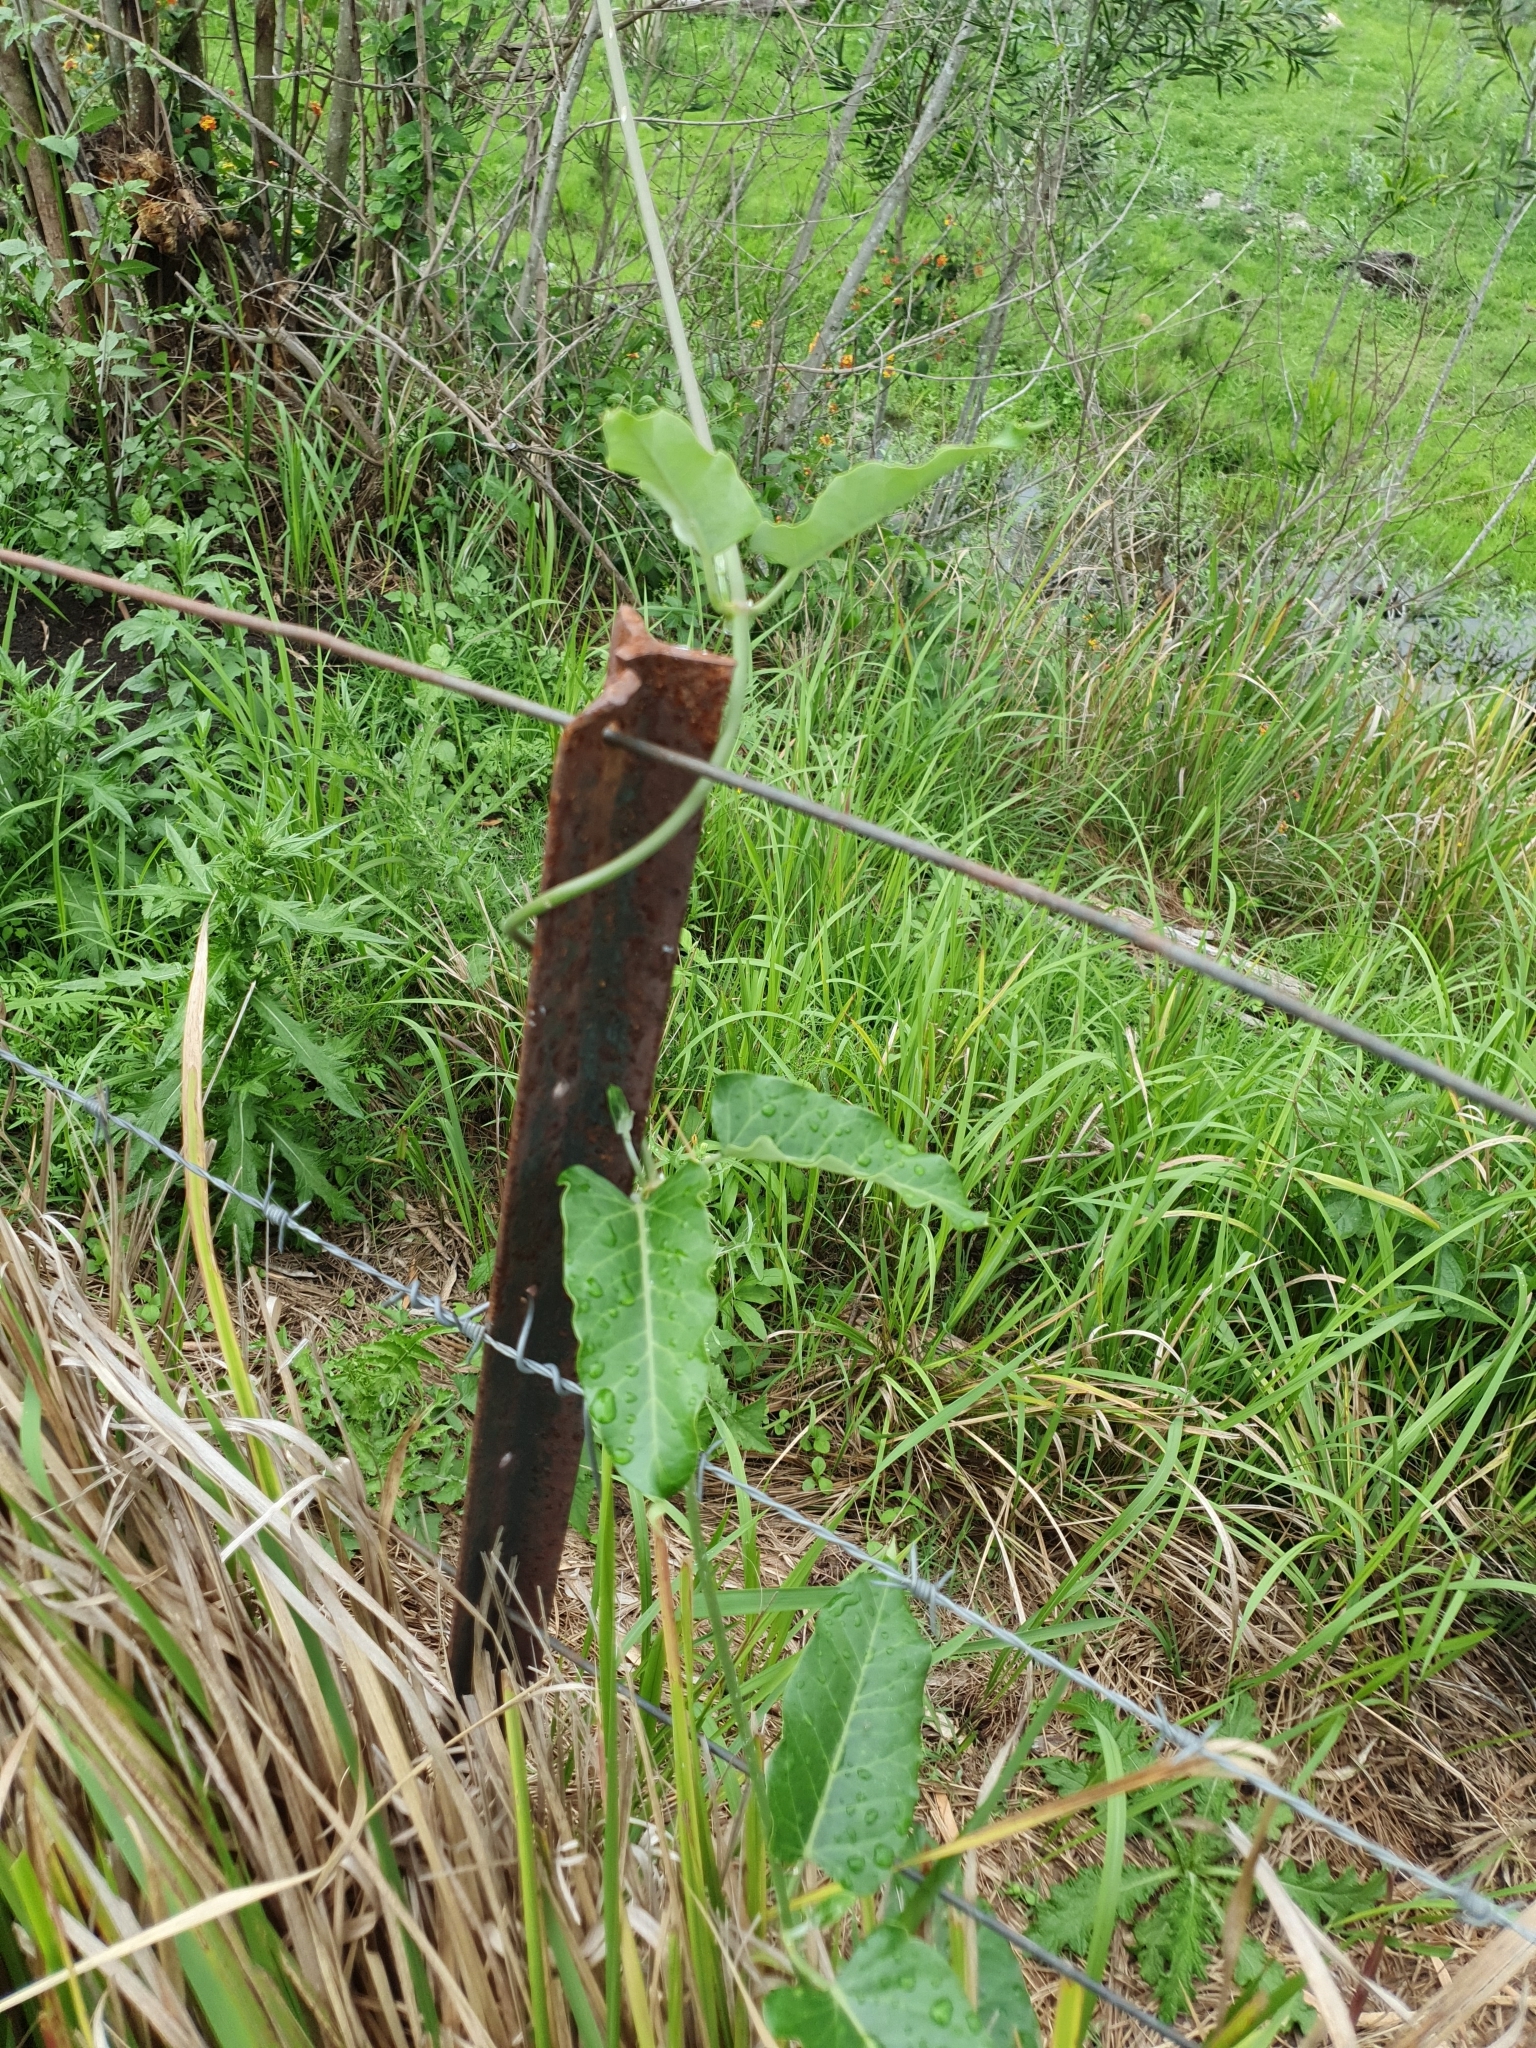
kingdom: Plantae
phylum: Tracheophyta
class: Magnoliopsida
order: Gentianales
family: Apocynaceae
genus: Araujia
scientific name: Araujia sericifera
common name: White bladderflower
